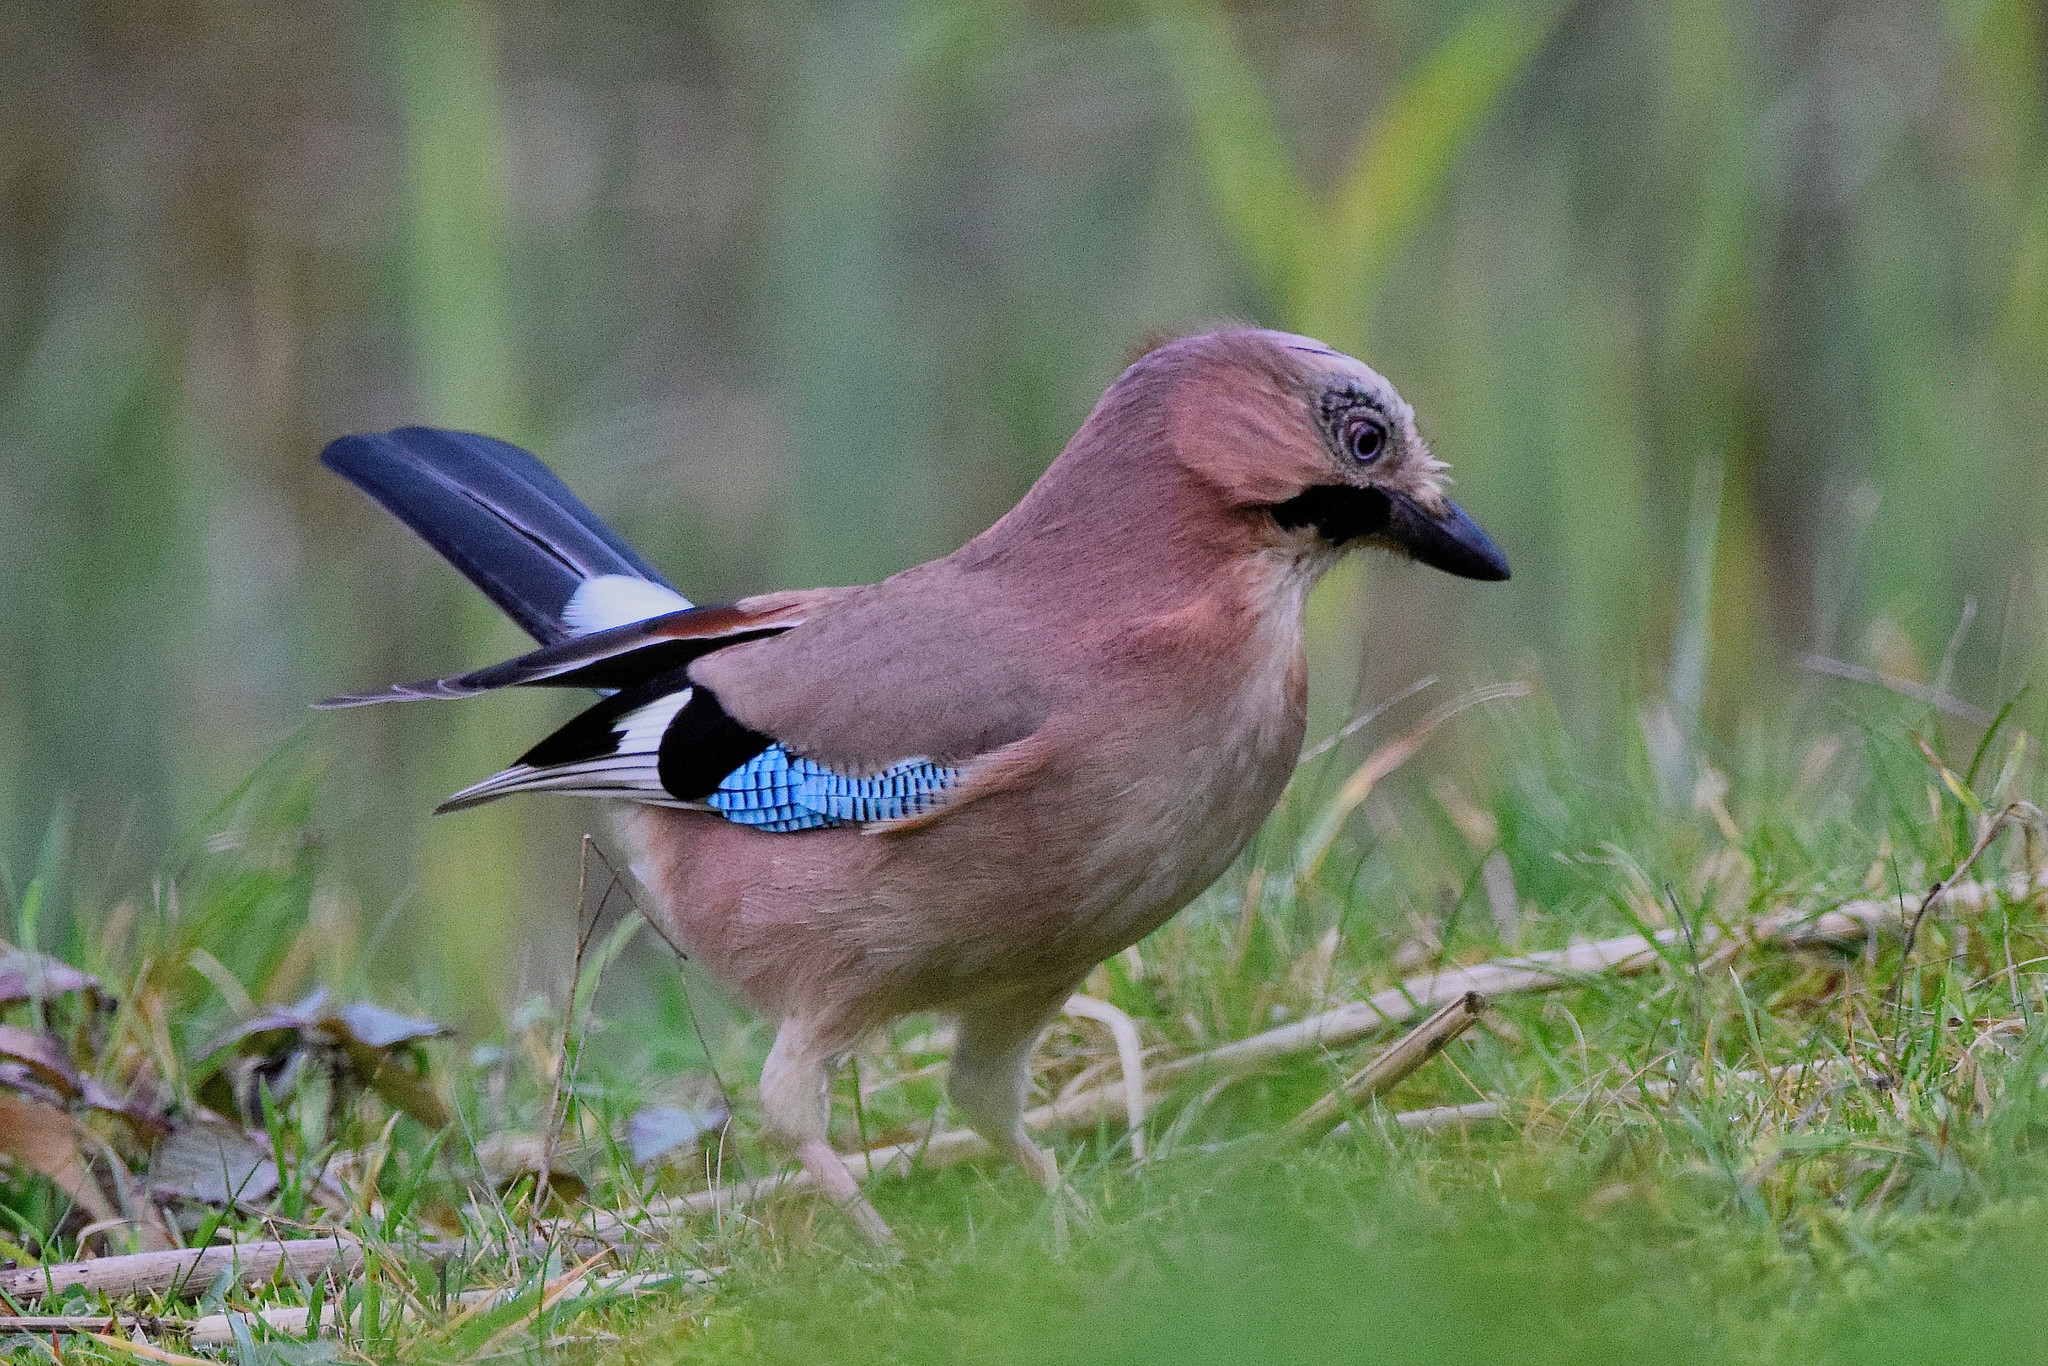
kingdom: Animalia
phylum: Chordata
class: Aves
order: Passeriformes
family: Corvidae
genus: Garrulus
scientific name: Garrulus glandarius
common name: Eurasian jay
